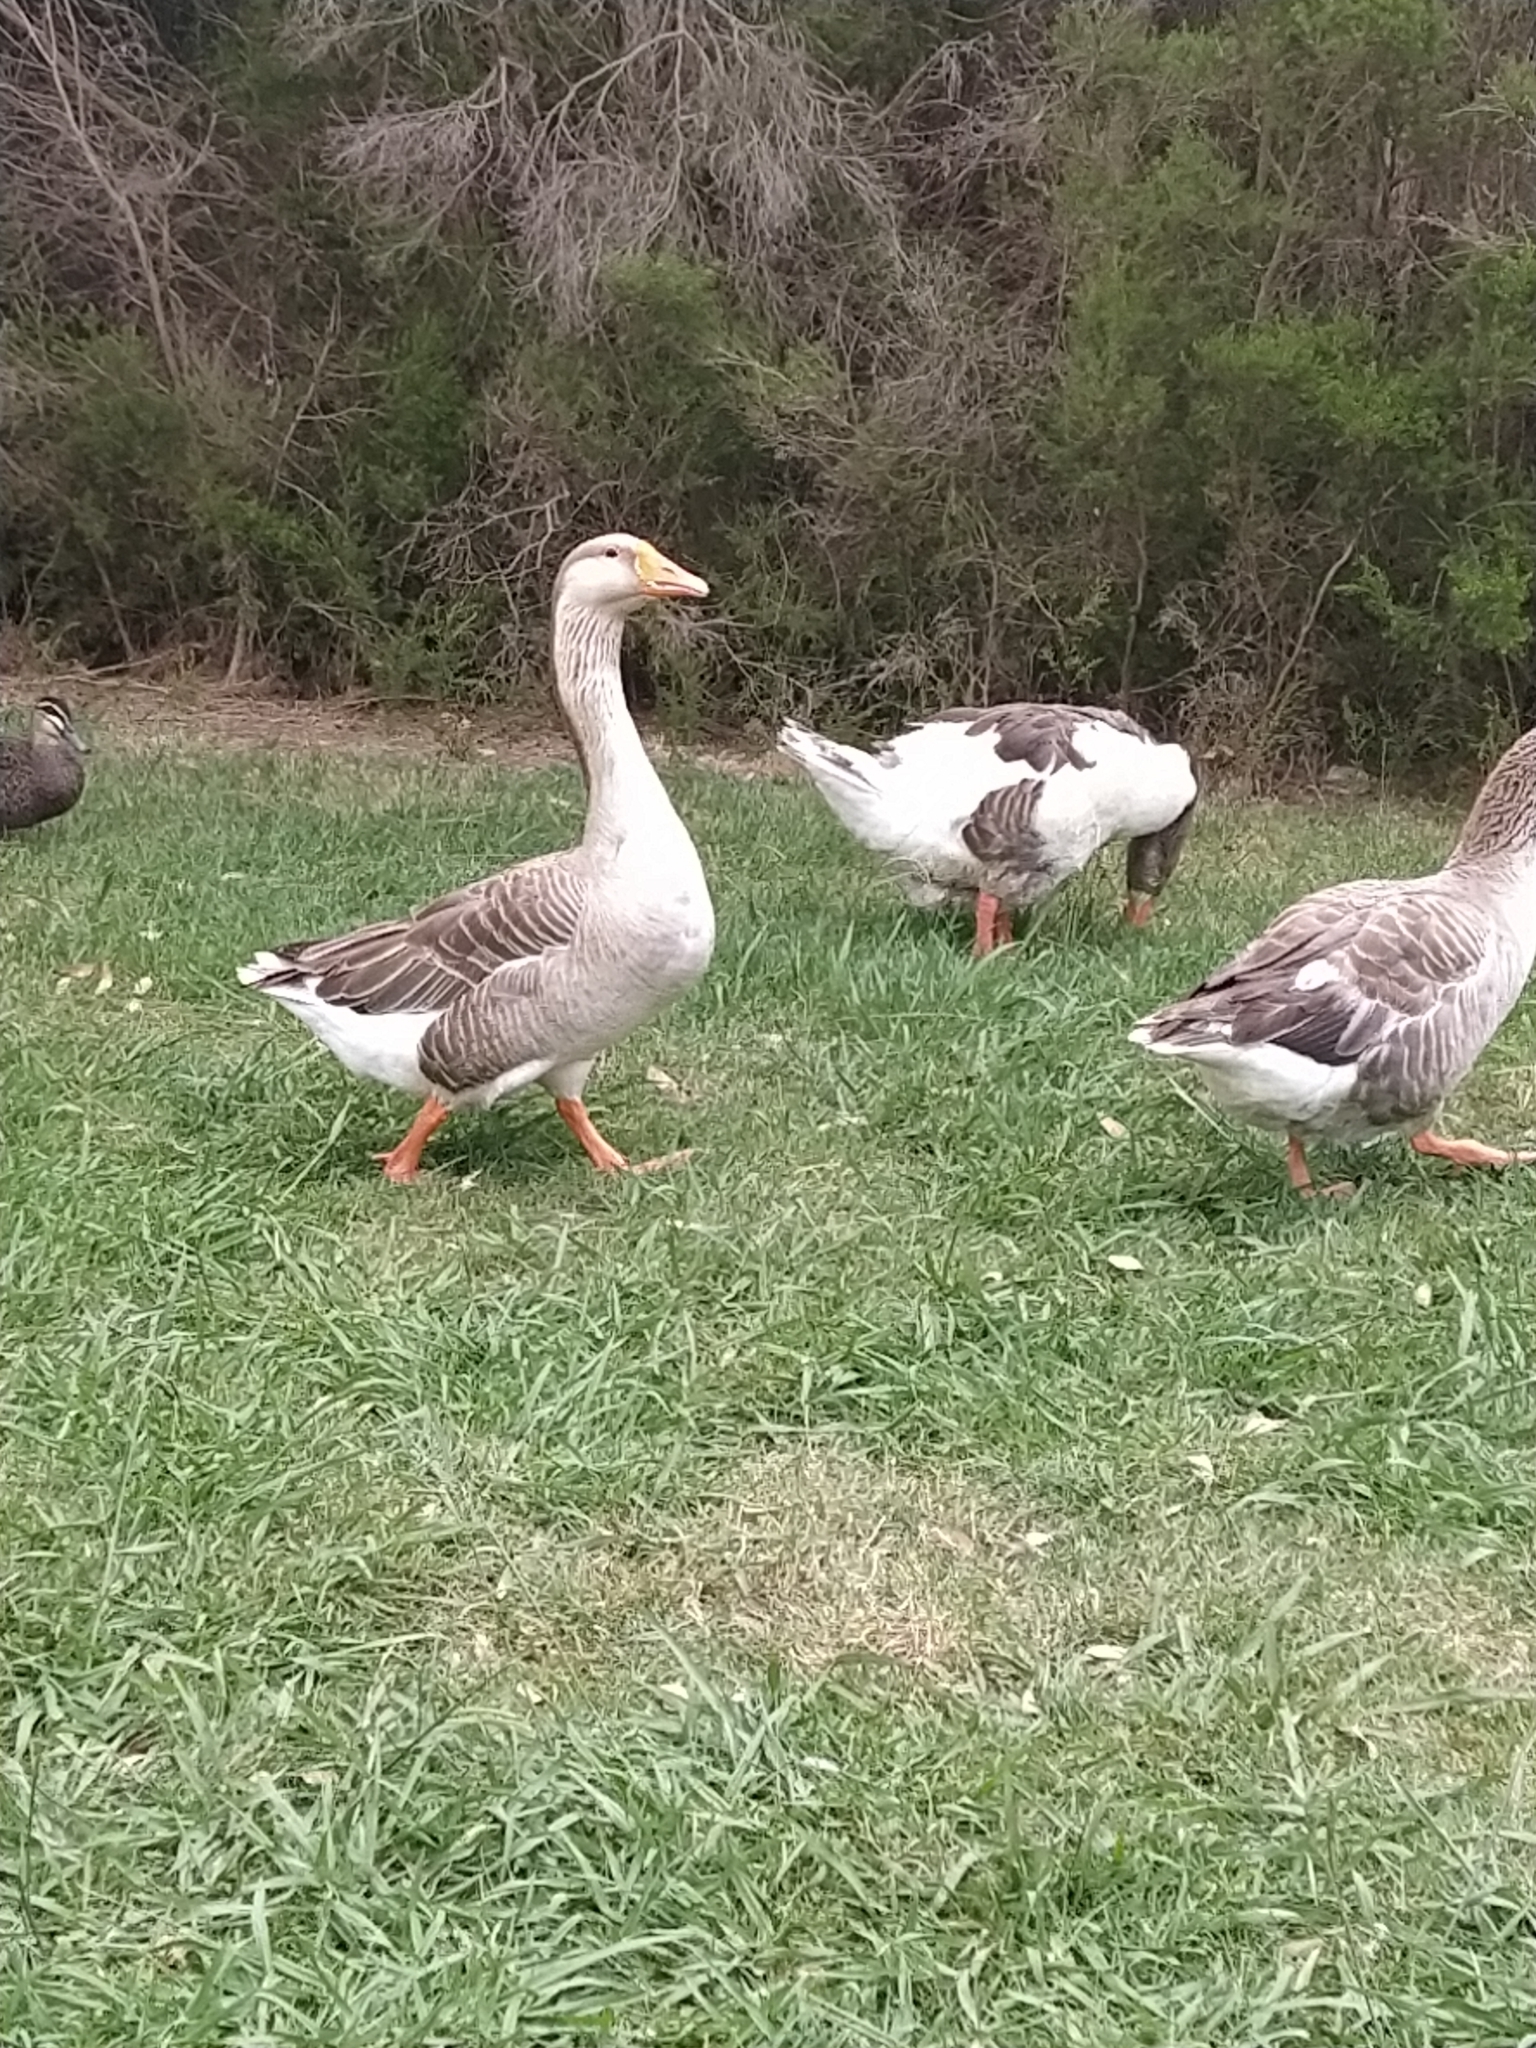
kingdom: Animalia
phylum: Chordata
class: Aves
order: Anseriformes
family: Anatidae
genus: Anser
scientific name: Anser
